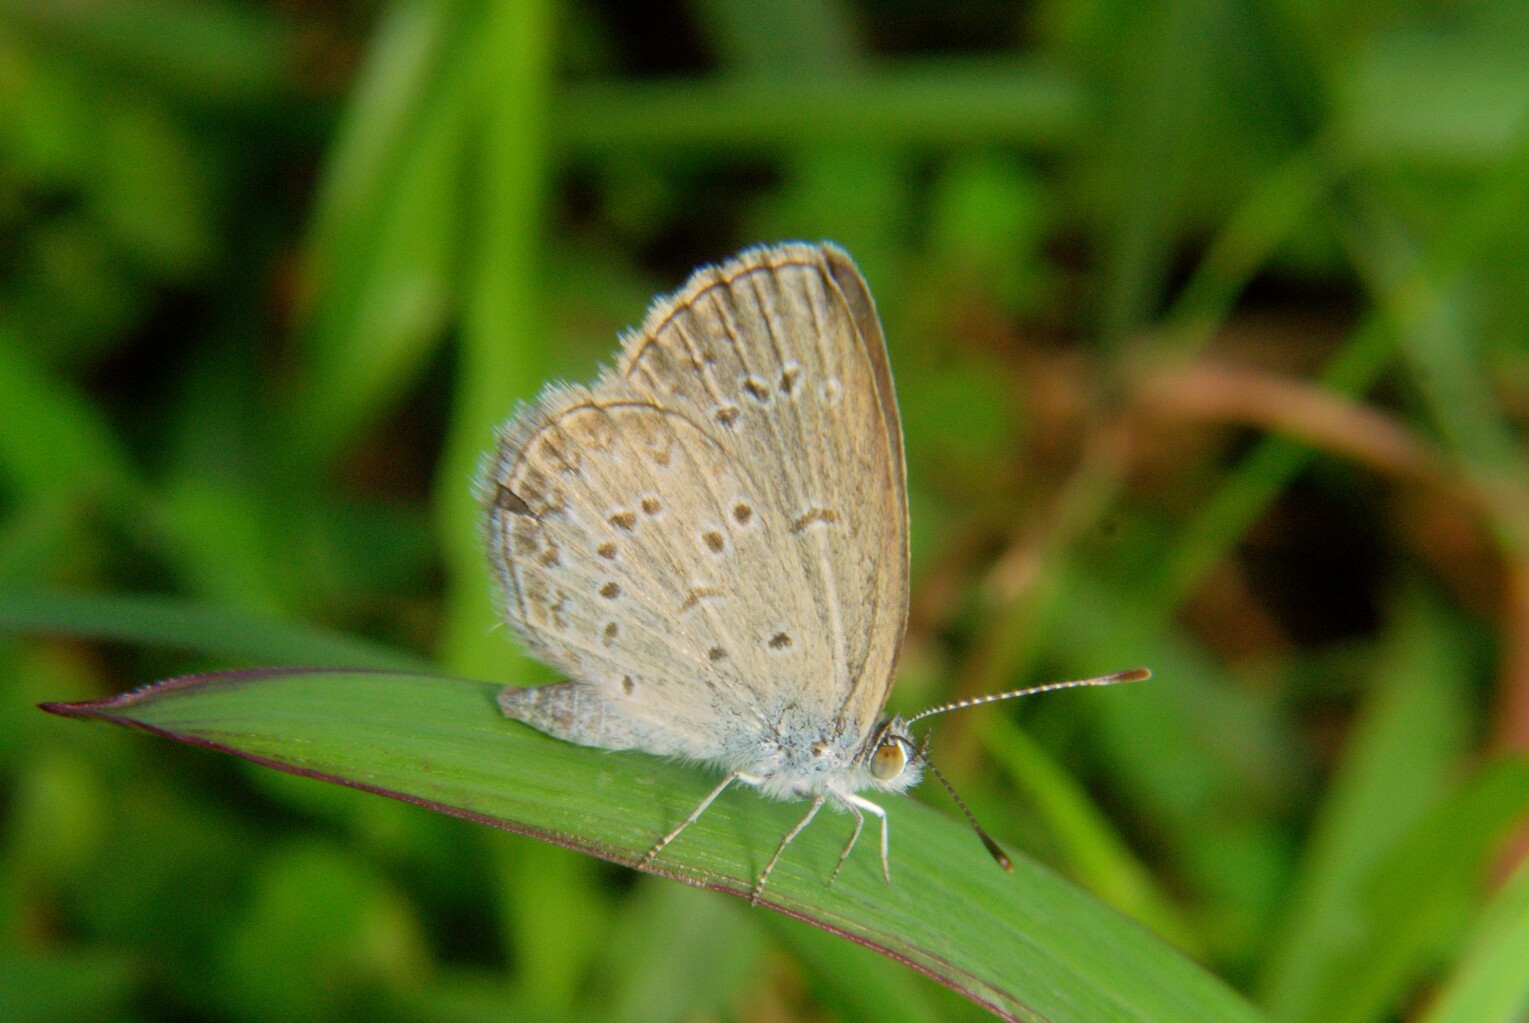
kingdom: Animalia
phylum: Arthropoda
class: Insecta
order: Lepidoptera
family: Lycaenidae
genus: Zizina
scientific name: Zizina otis
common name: Lesser grass blue
